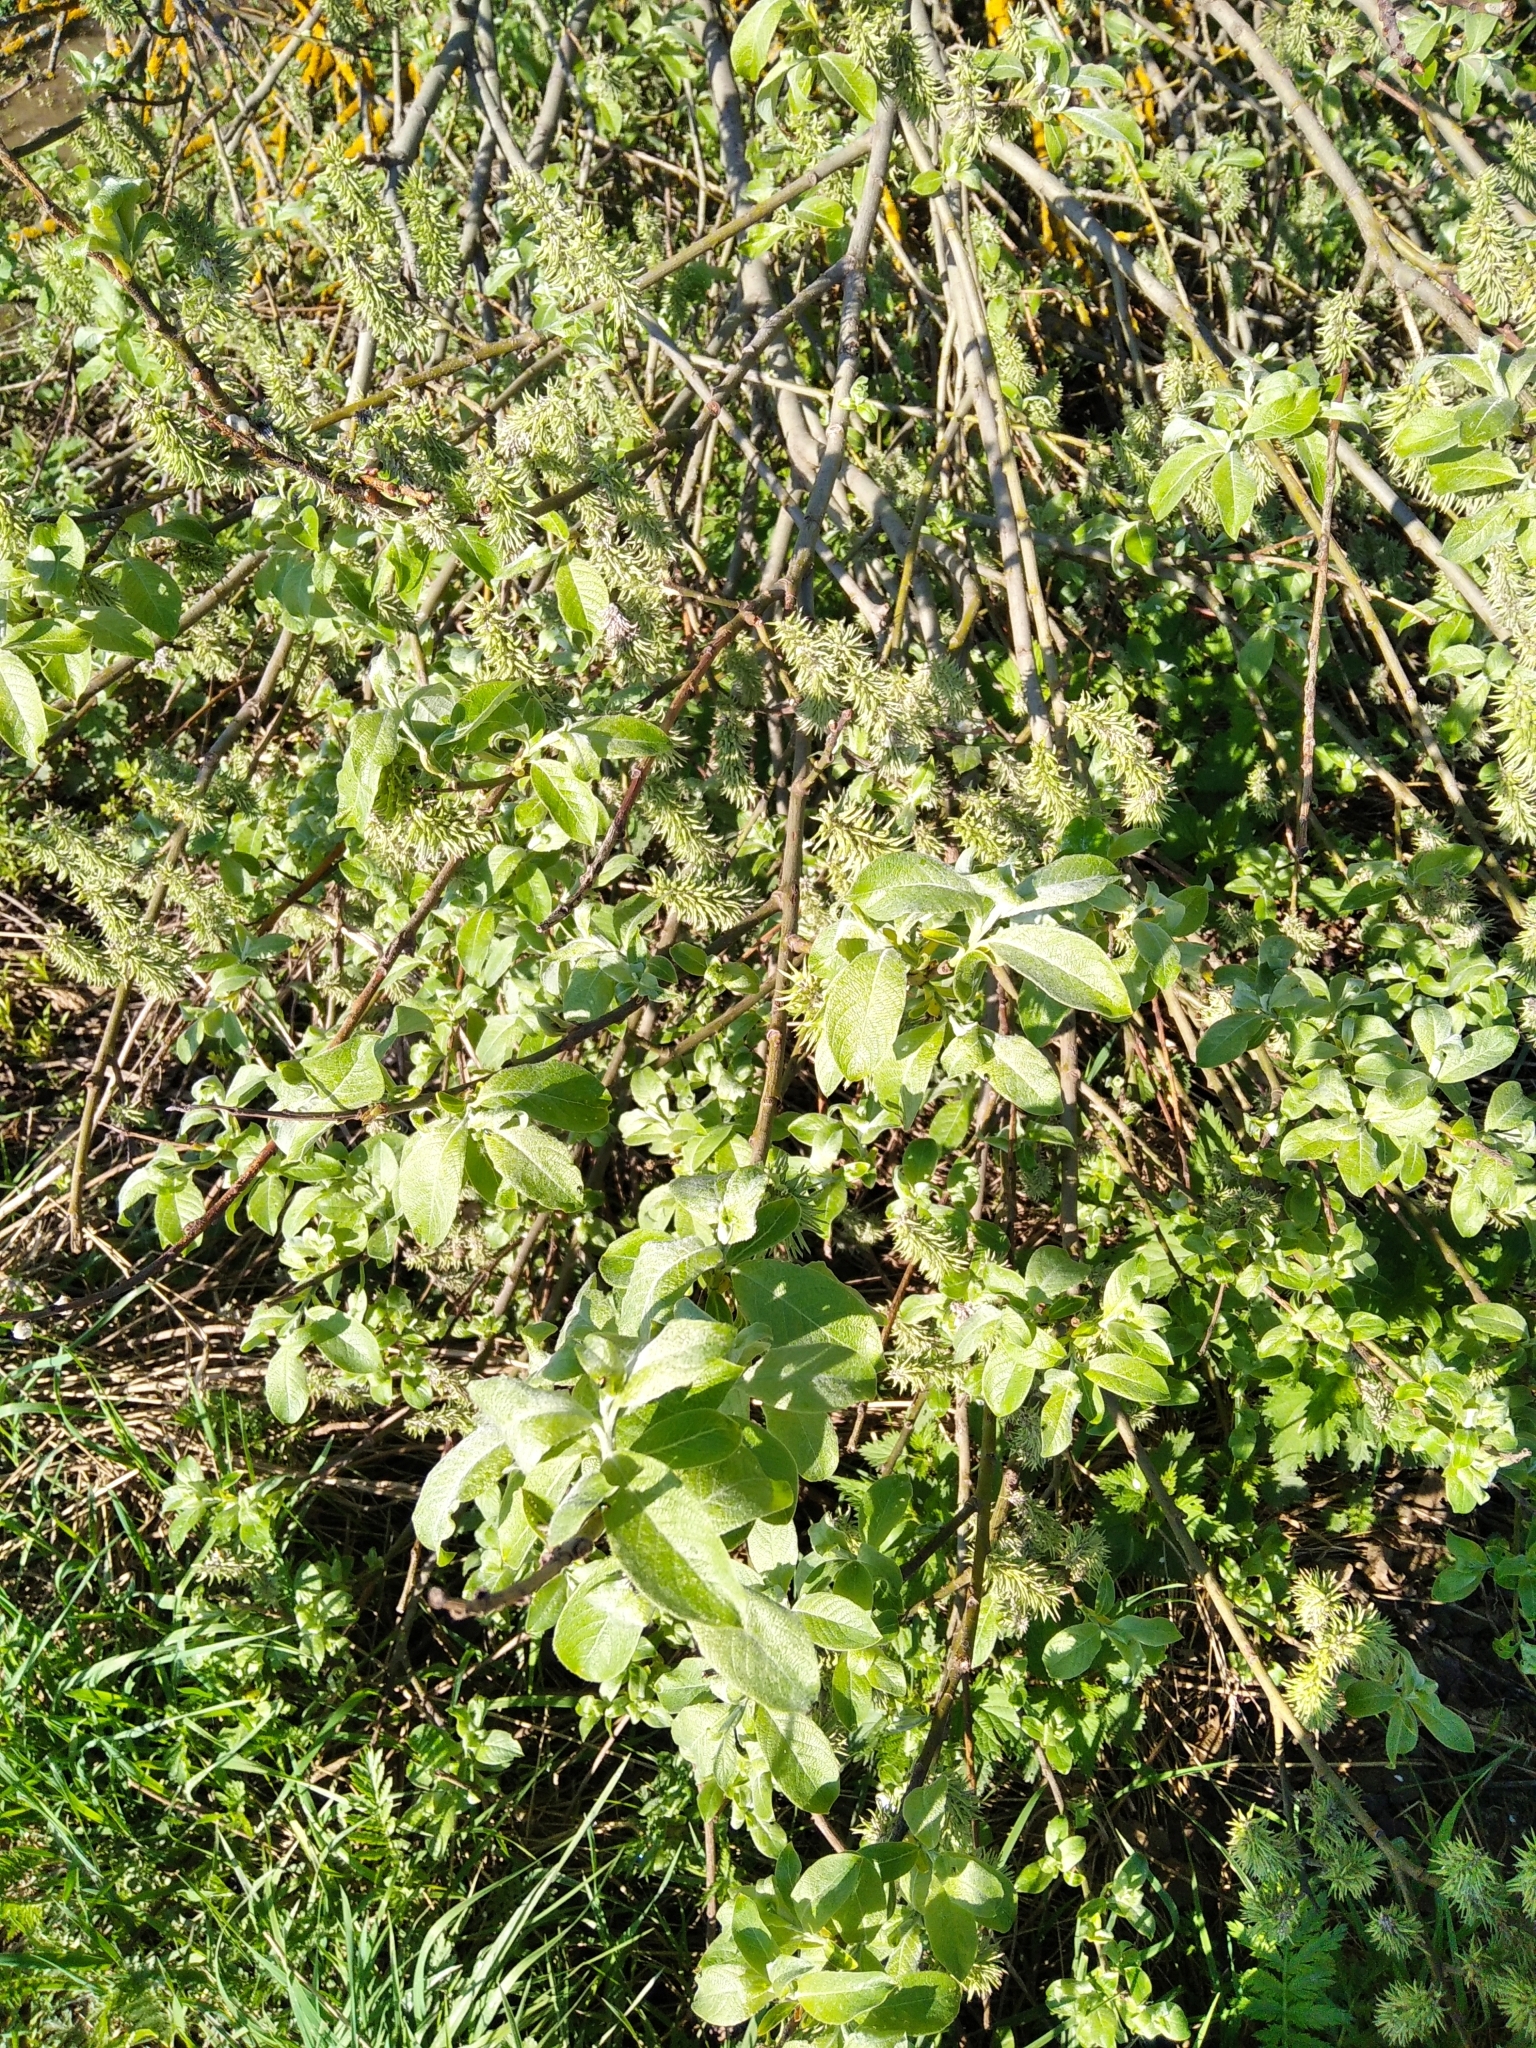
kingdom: Plantae
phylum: Tracheophyta
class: Magnoliopsida
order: Malpighiales
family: Salicaceae
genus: Salix
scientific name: Salix cinerea
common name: Common sallow
